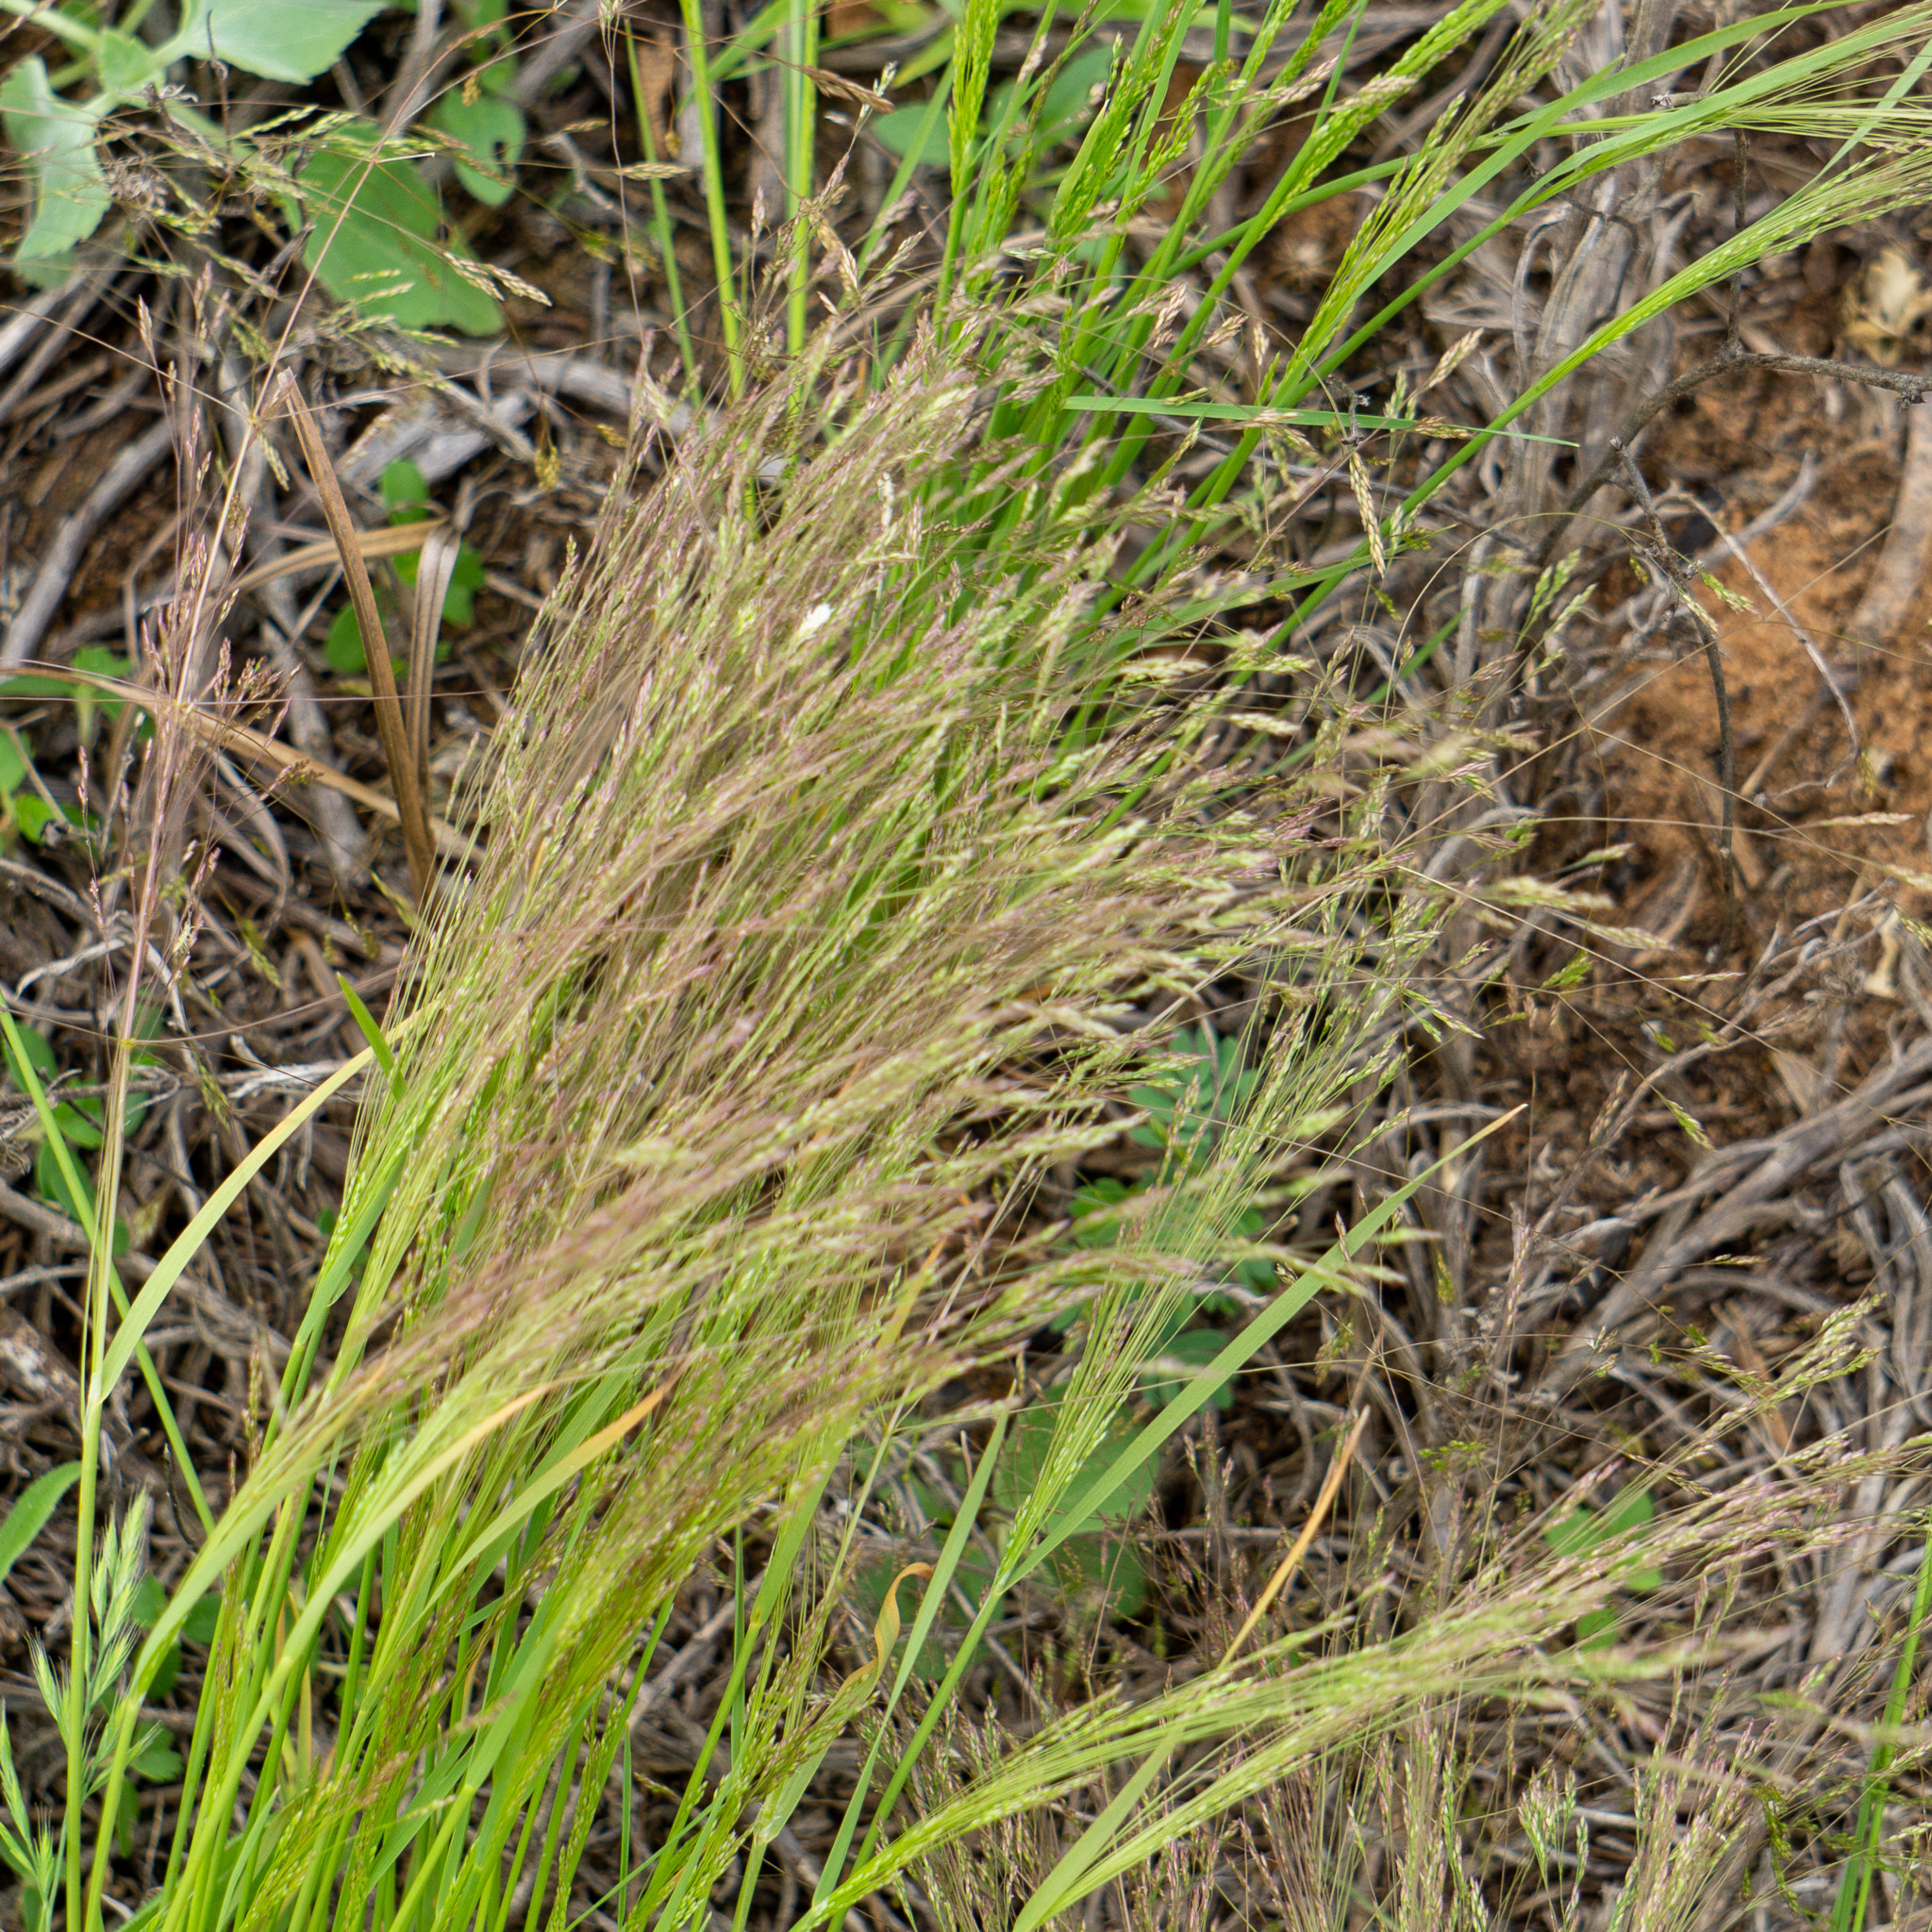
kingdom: Plantae
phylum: Tracheophyta
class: Liliopsida
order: Poales
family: Poaceae
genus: Agrostis
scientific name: Agrostis hyemalis
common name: Small bent
